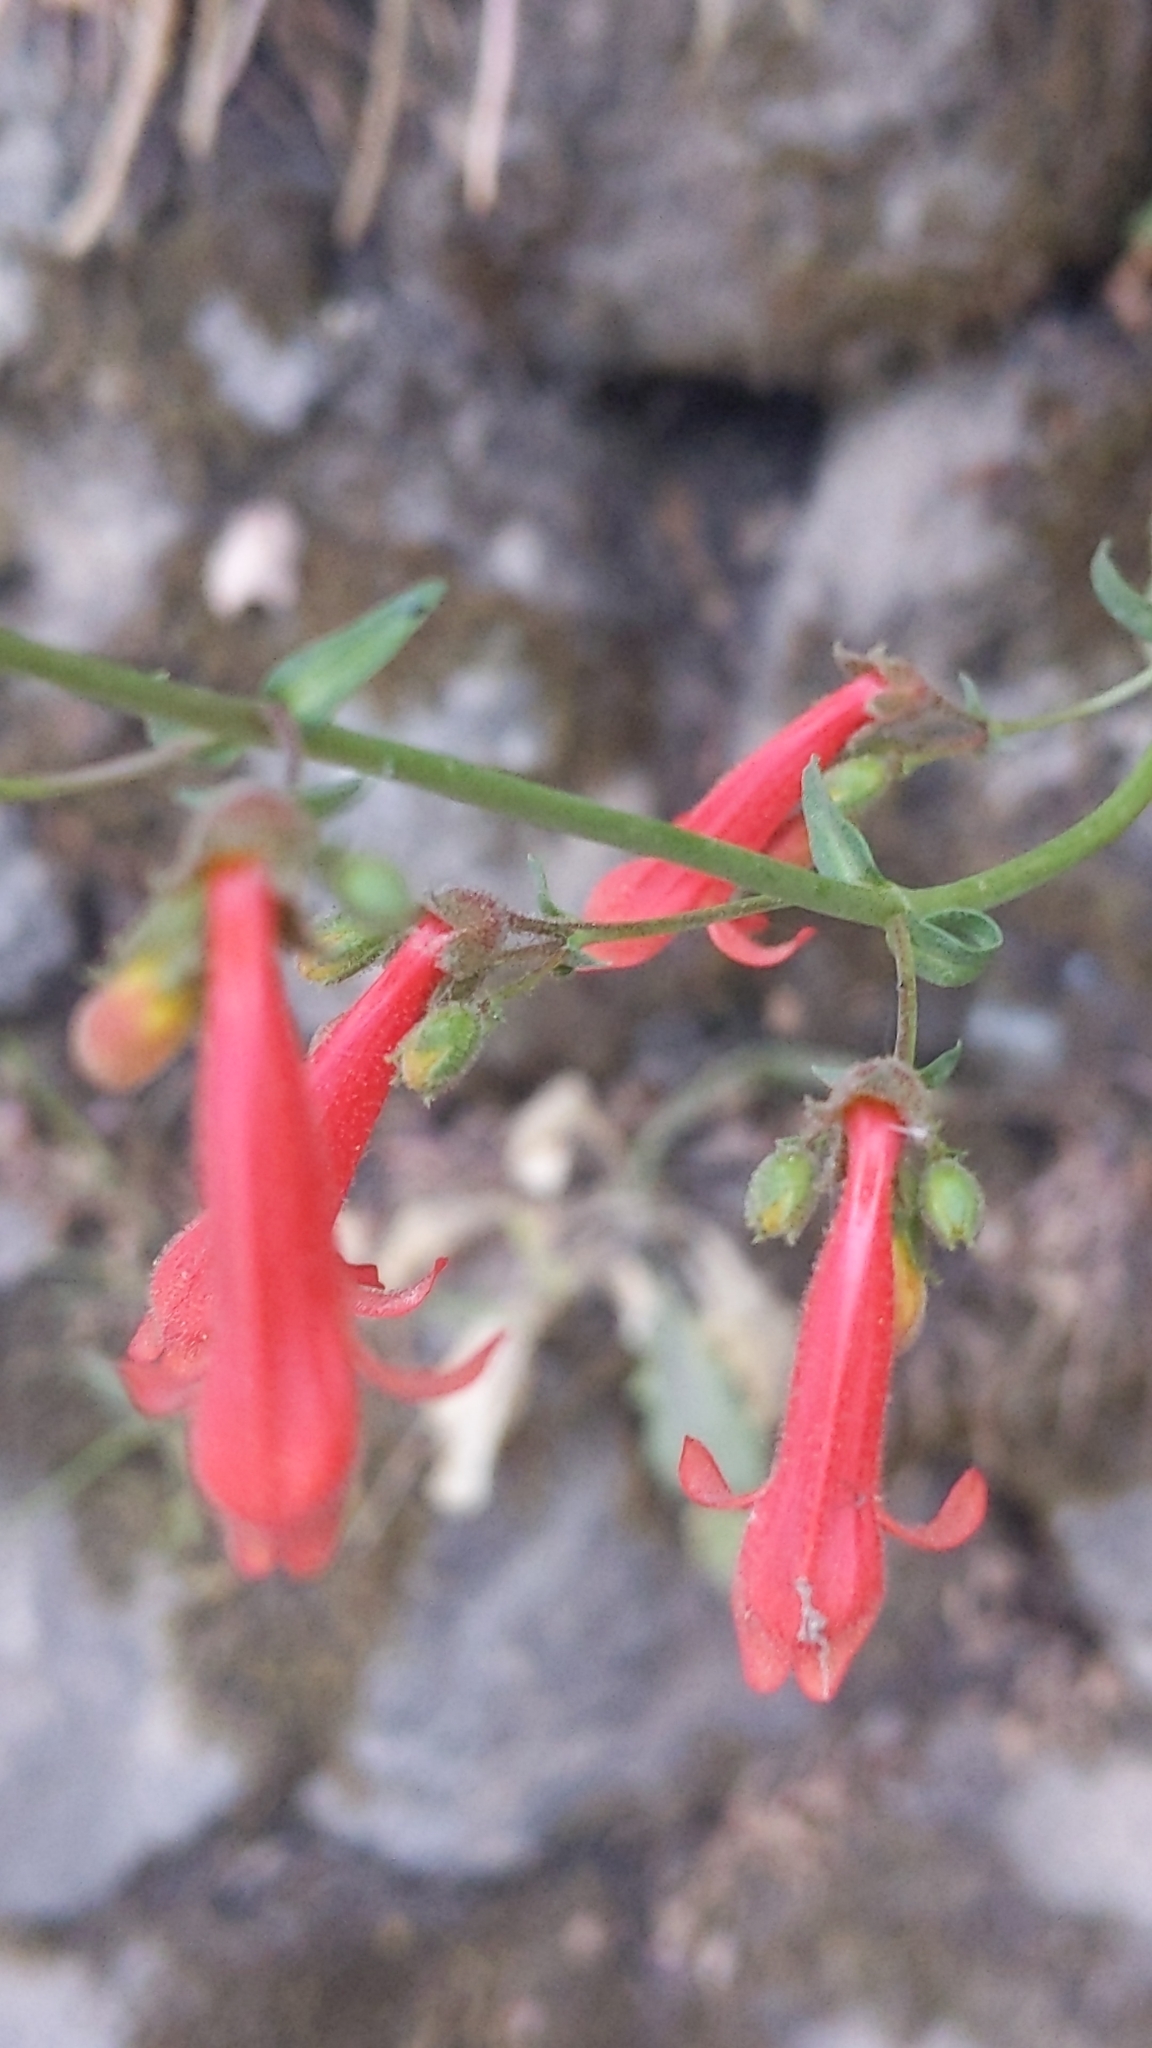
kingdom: Plantae
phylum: Tracheophyta
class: Magnoliopsida
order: Lamiales
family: Plantaginaceae
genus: Penstemon
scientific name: Penstemon rostriflorus
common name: Bridges's penstemon
